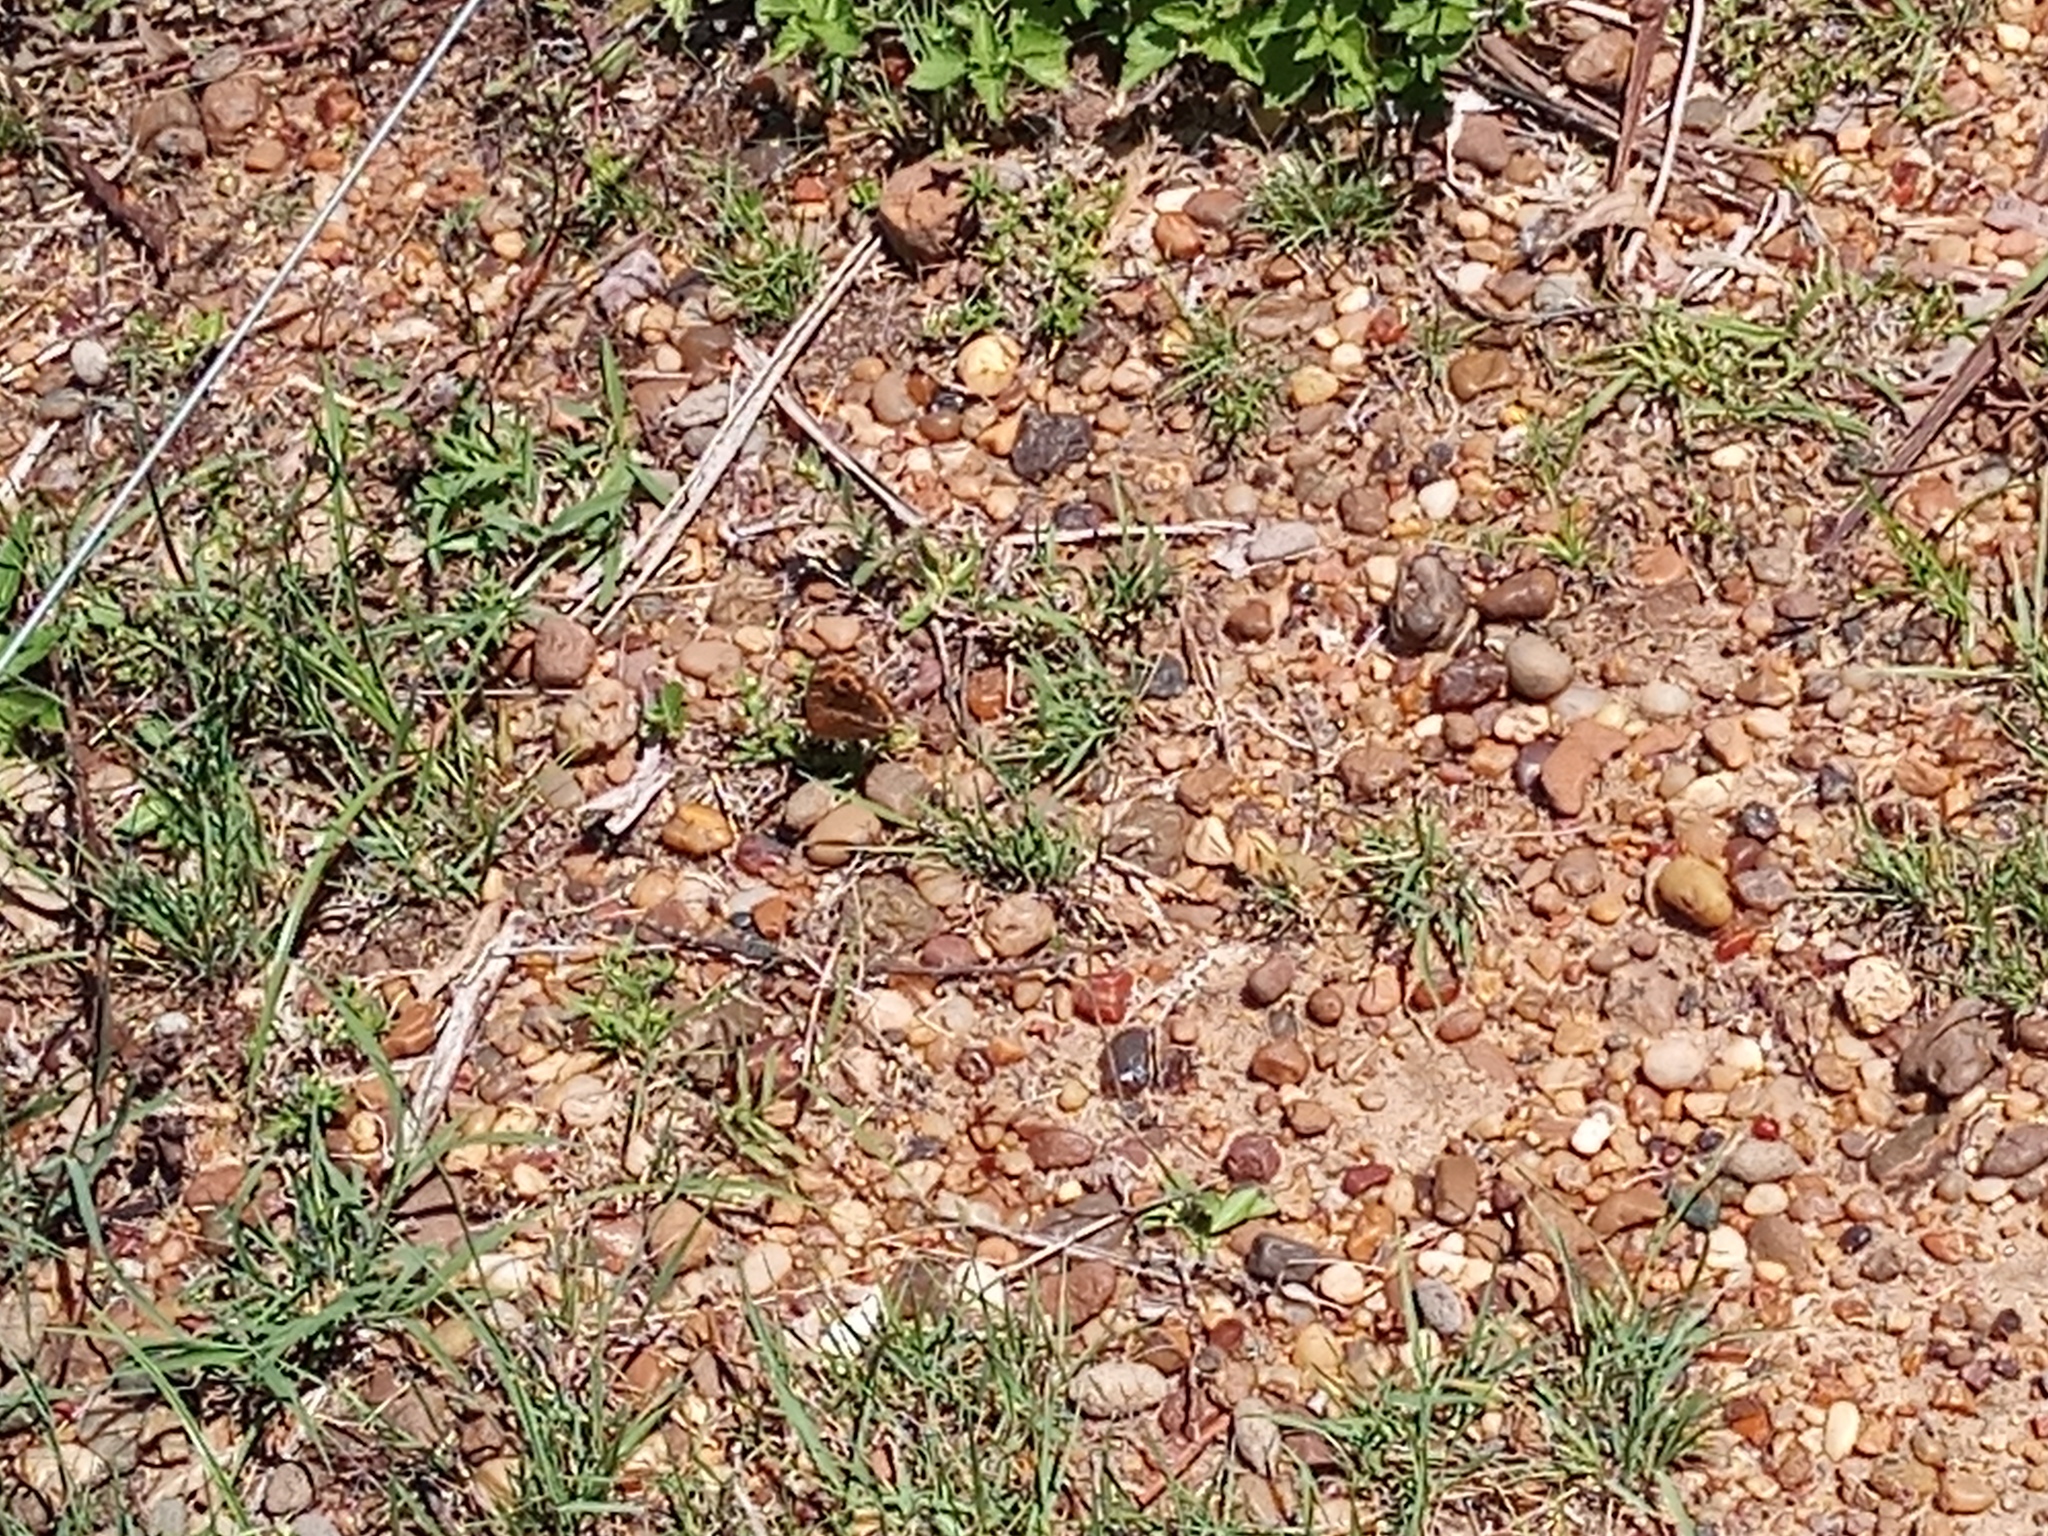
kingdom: Animalia
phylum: Arthropoda
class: Insecta
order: Lepidoptera
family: Nymphalidae
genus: Junonia
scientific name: Junonia lavinia
